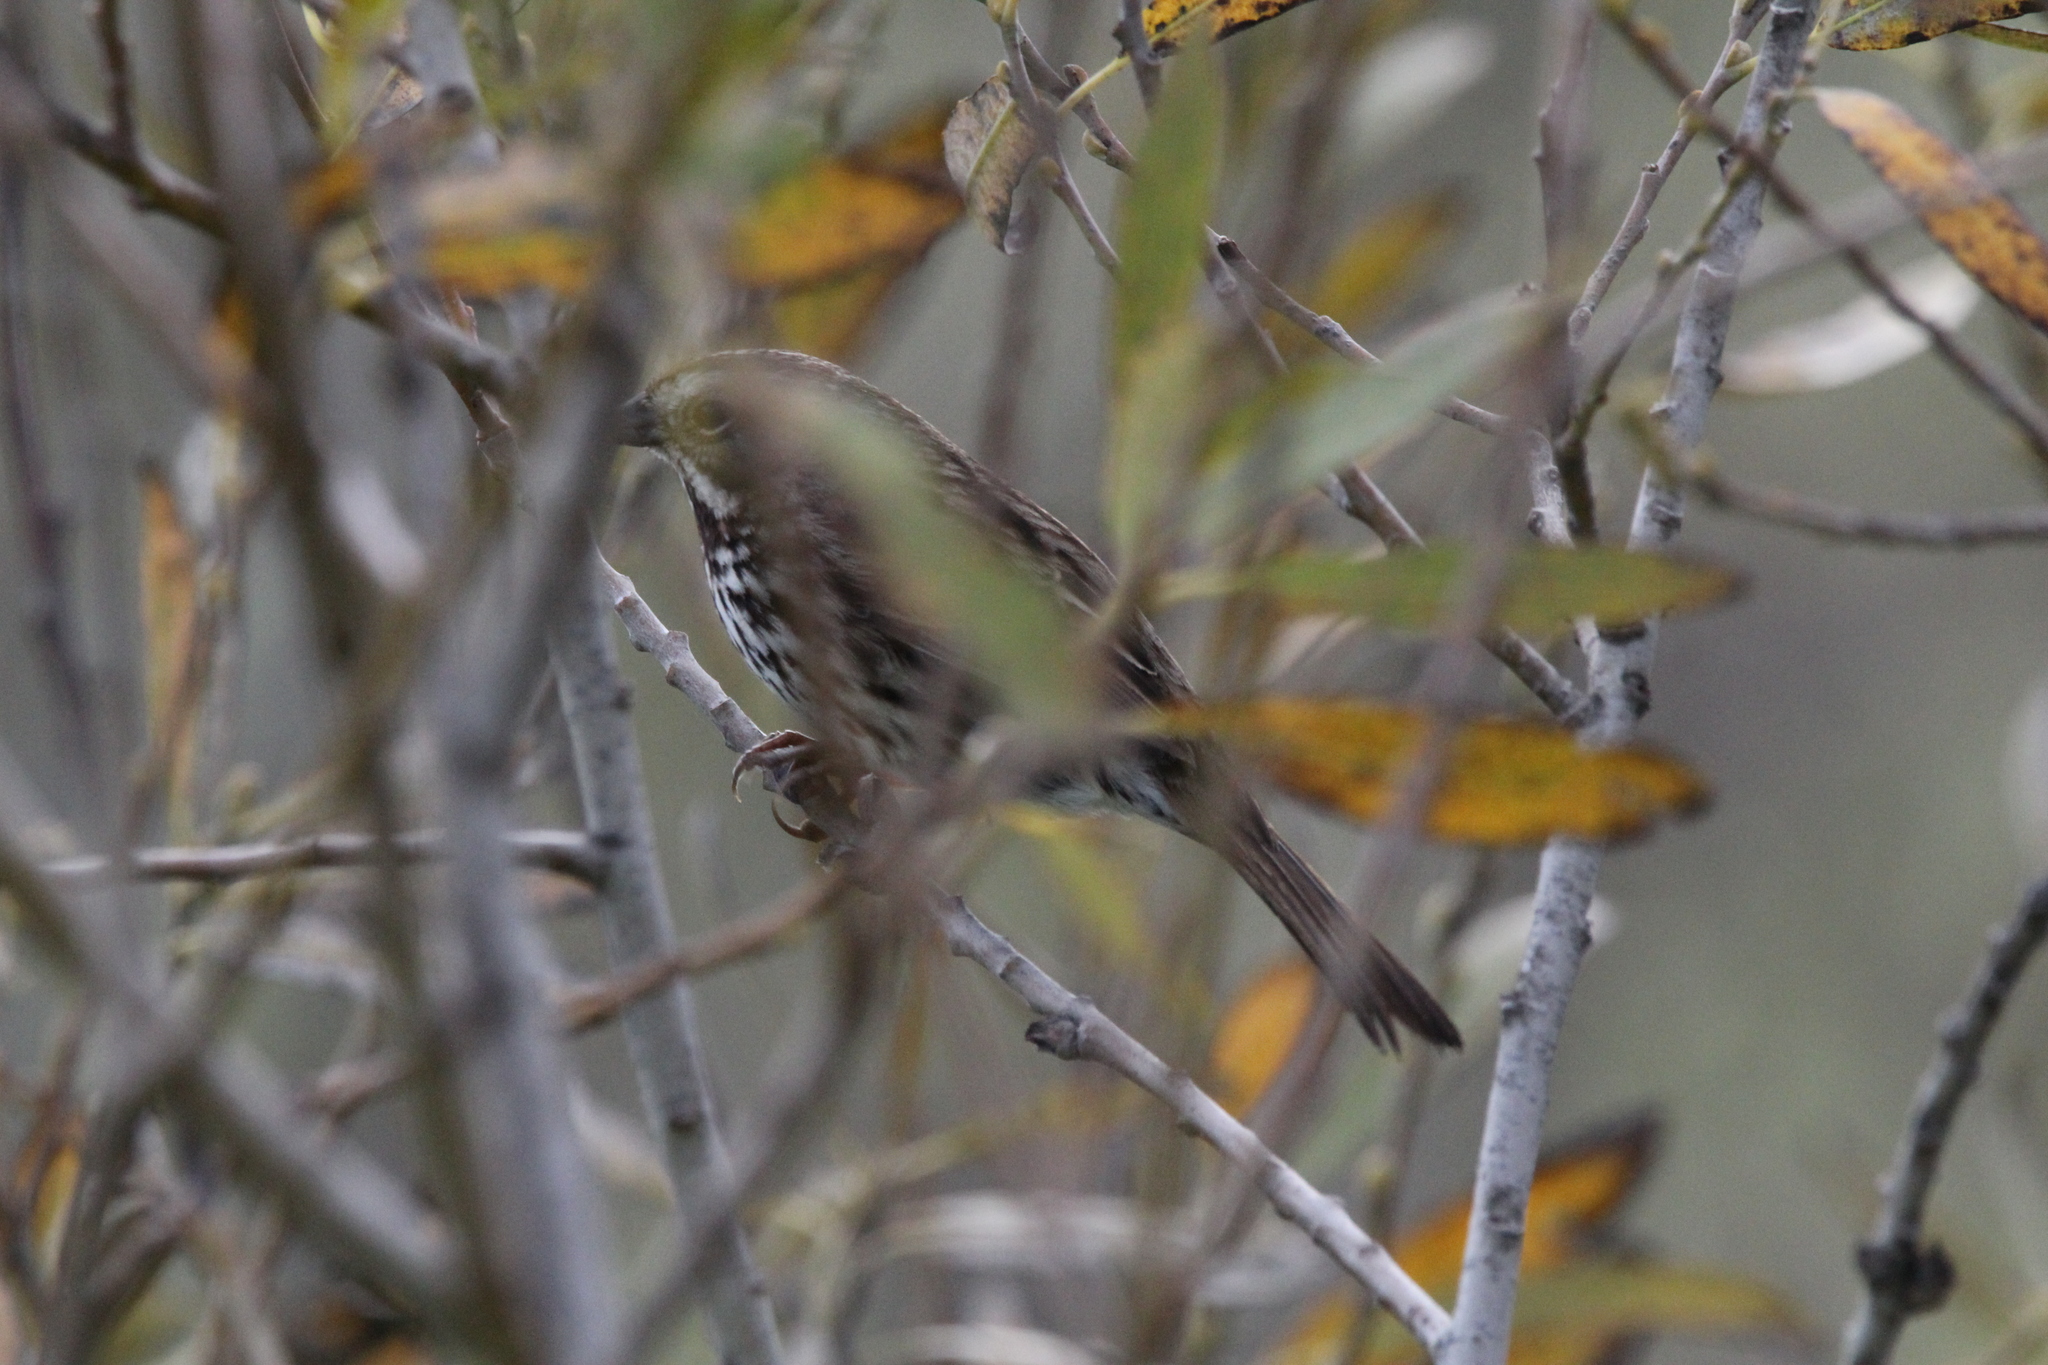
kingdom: Animalia
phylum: Chordata
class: Aves
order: Passeriformes
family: Passerellidae
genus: Melospiza
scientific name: Melospiza melodia
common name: Song sparrow
